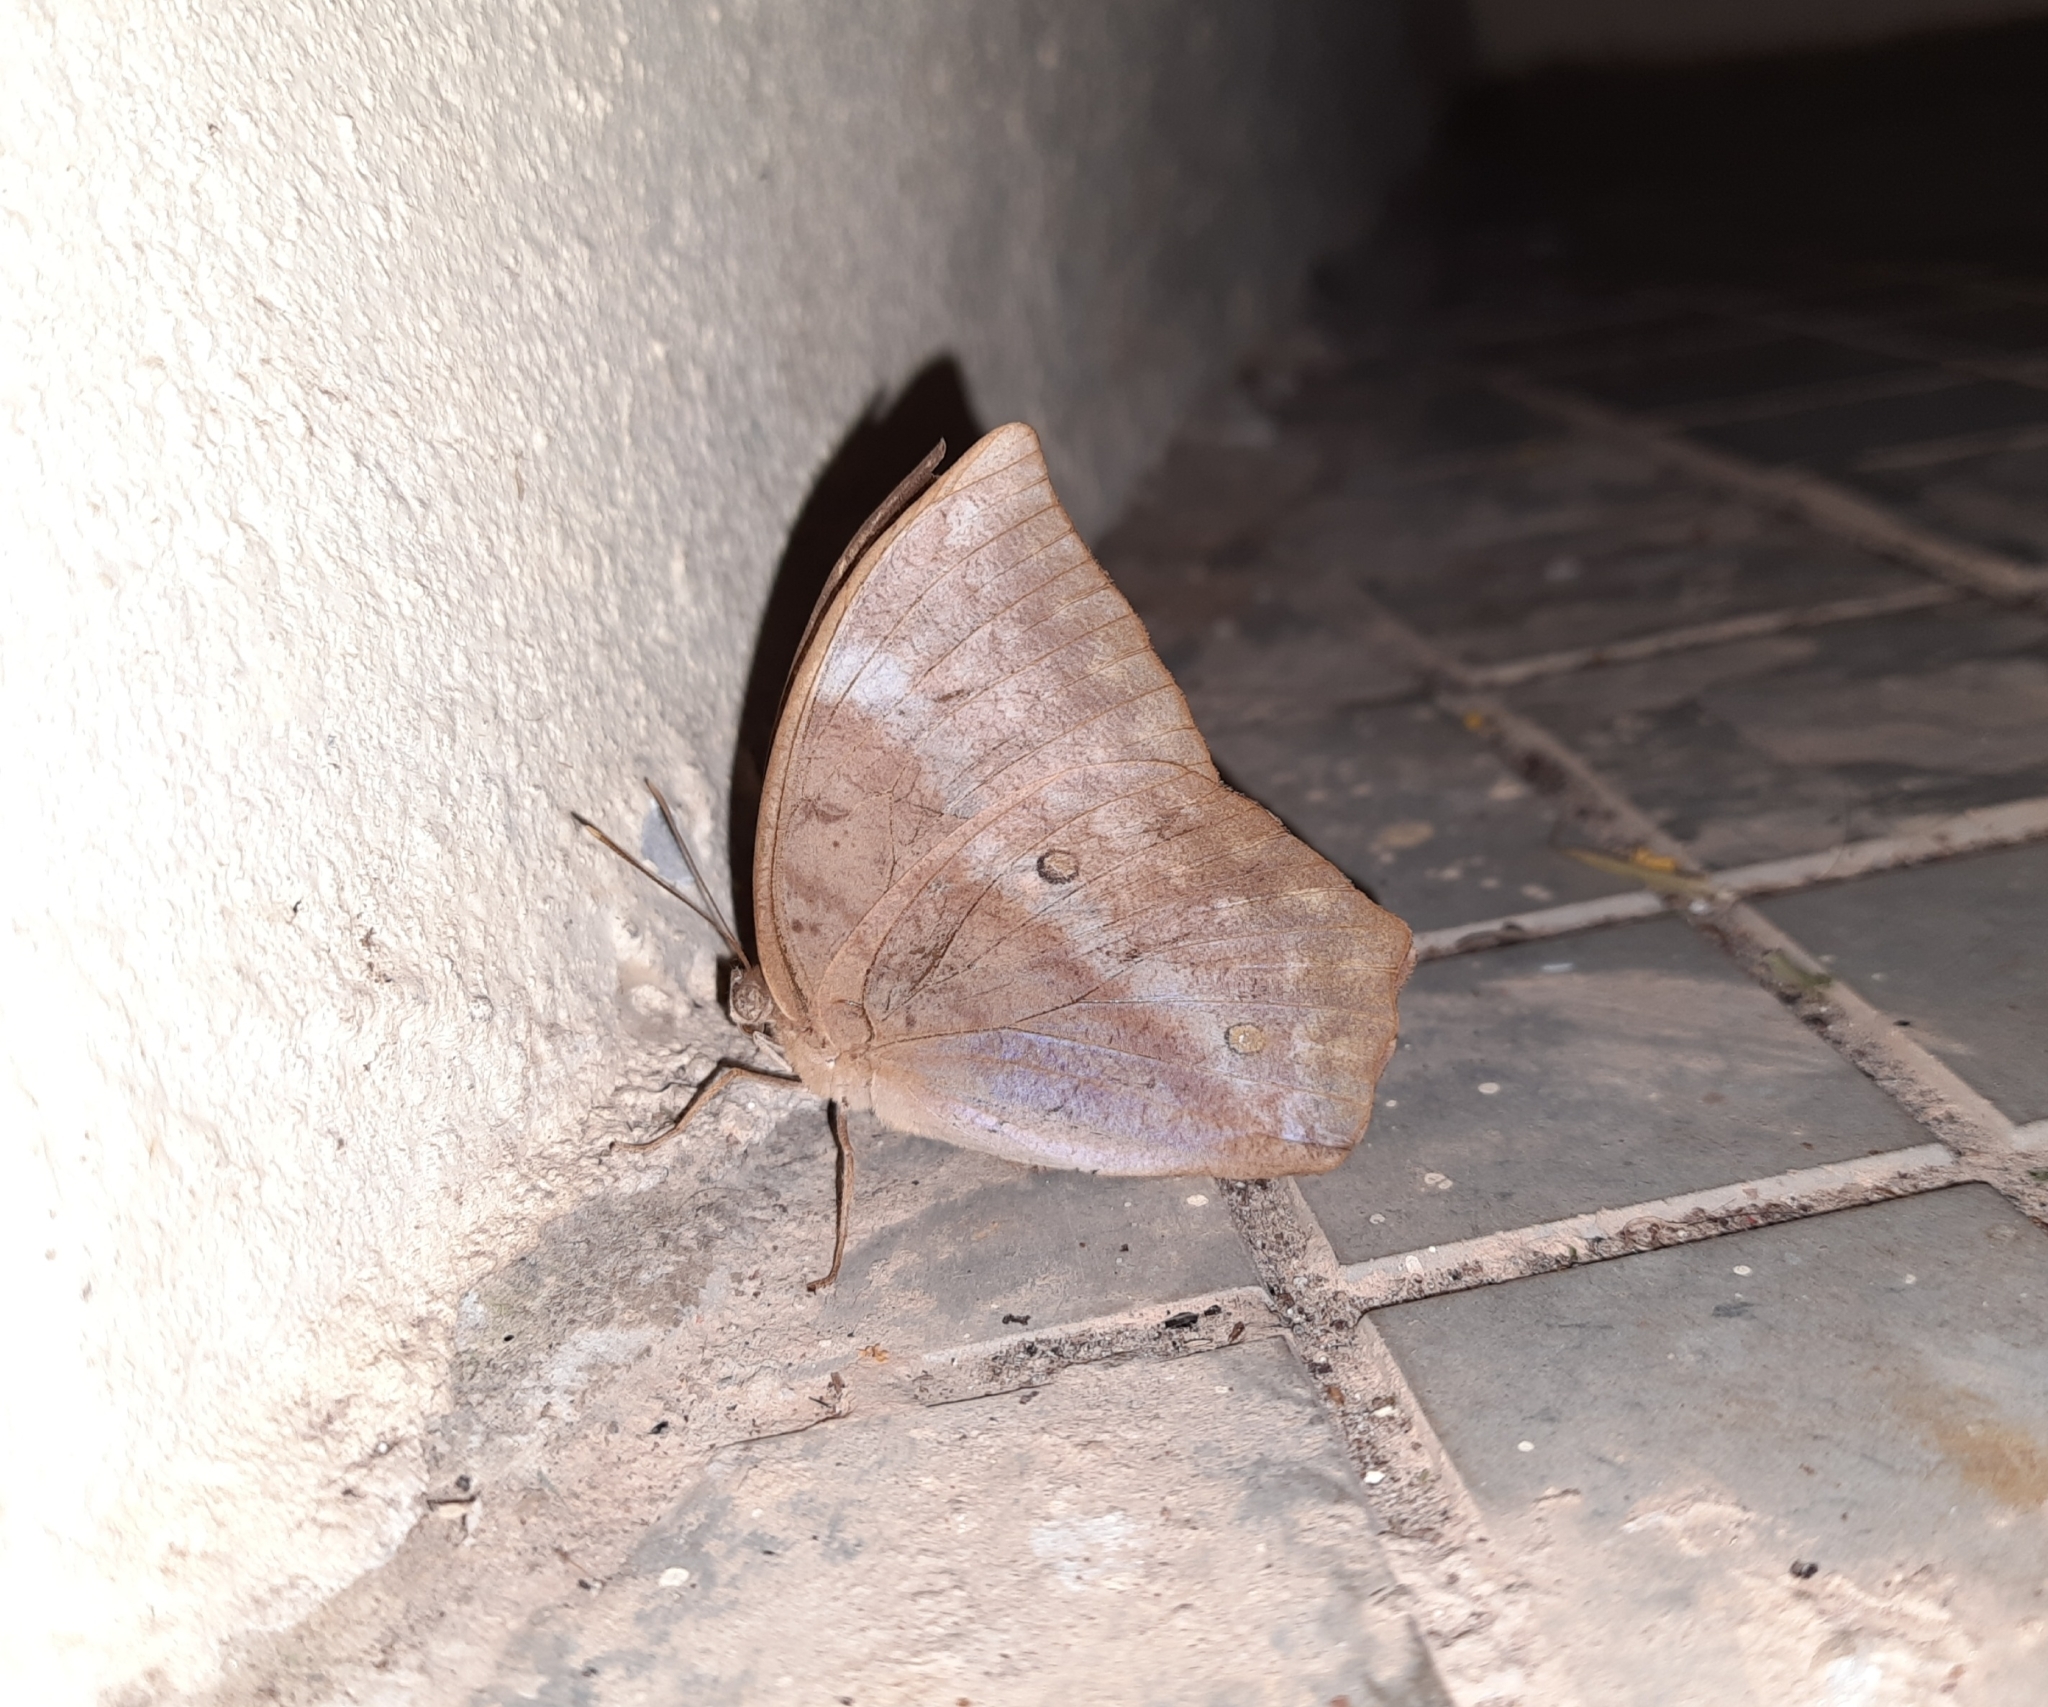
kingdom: Animalia
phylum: Arthropoda
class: Insecta
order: Lepidoptera
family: Nymphalidae
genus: Discophora
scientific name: Discophora lepida
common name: Southern duffer
